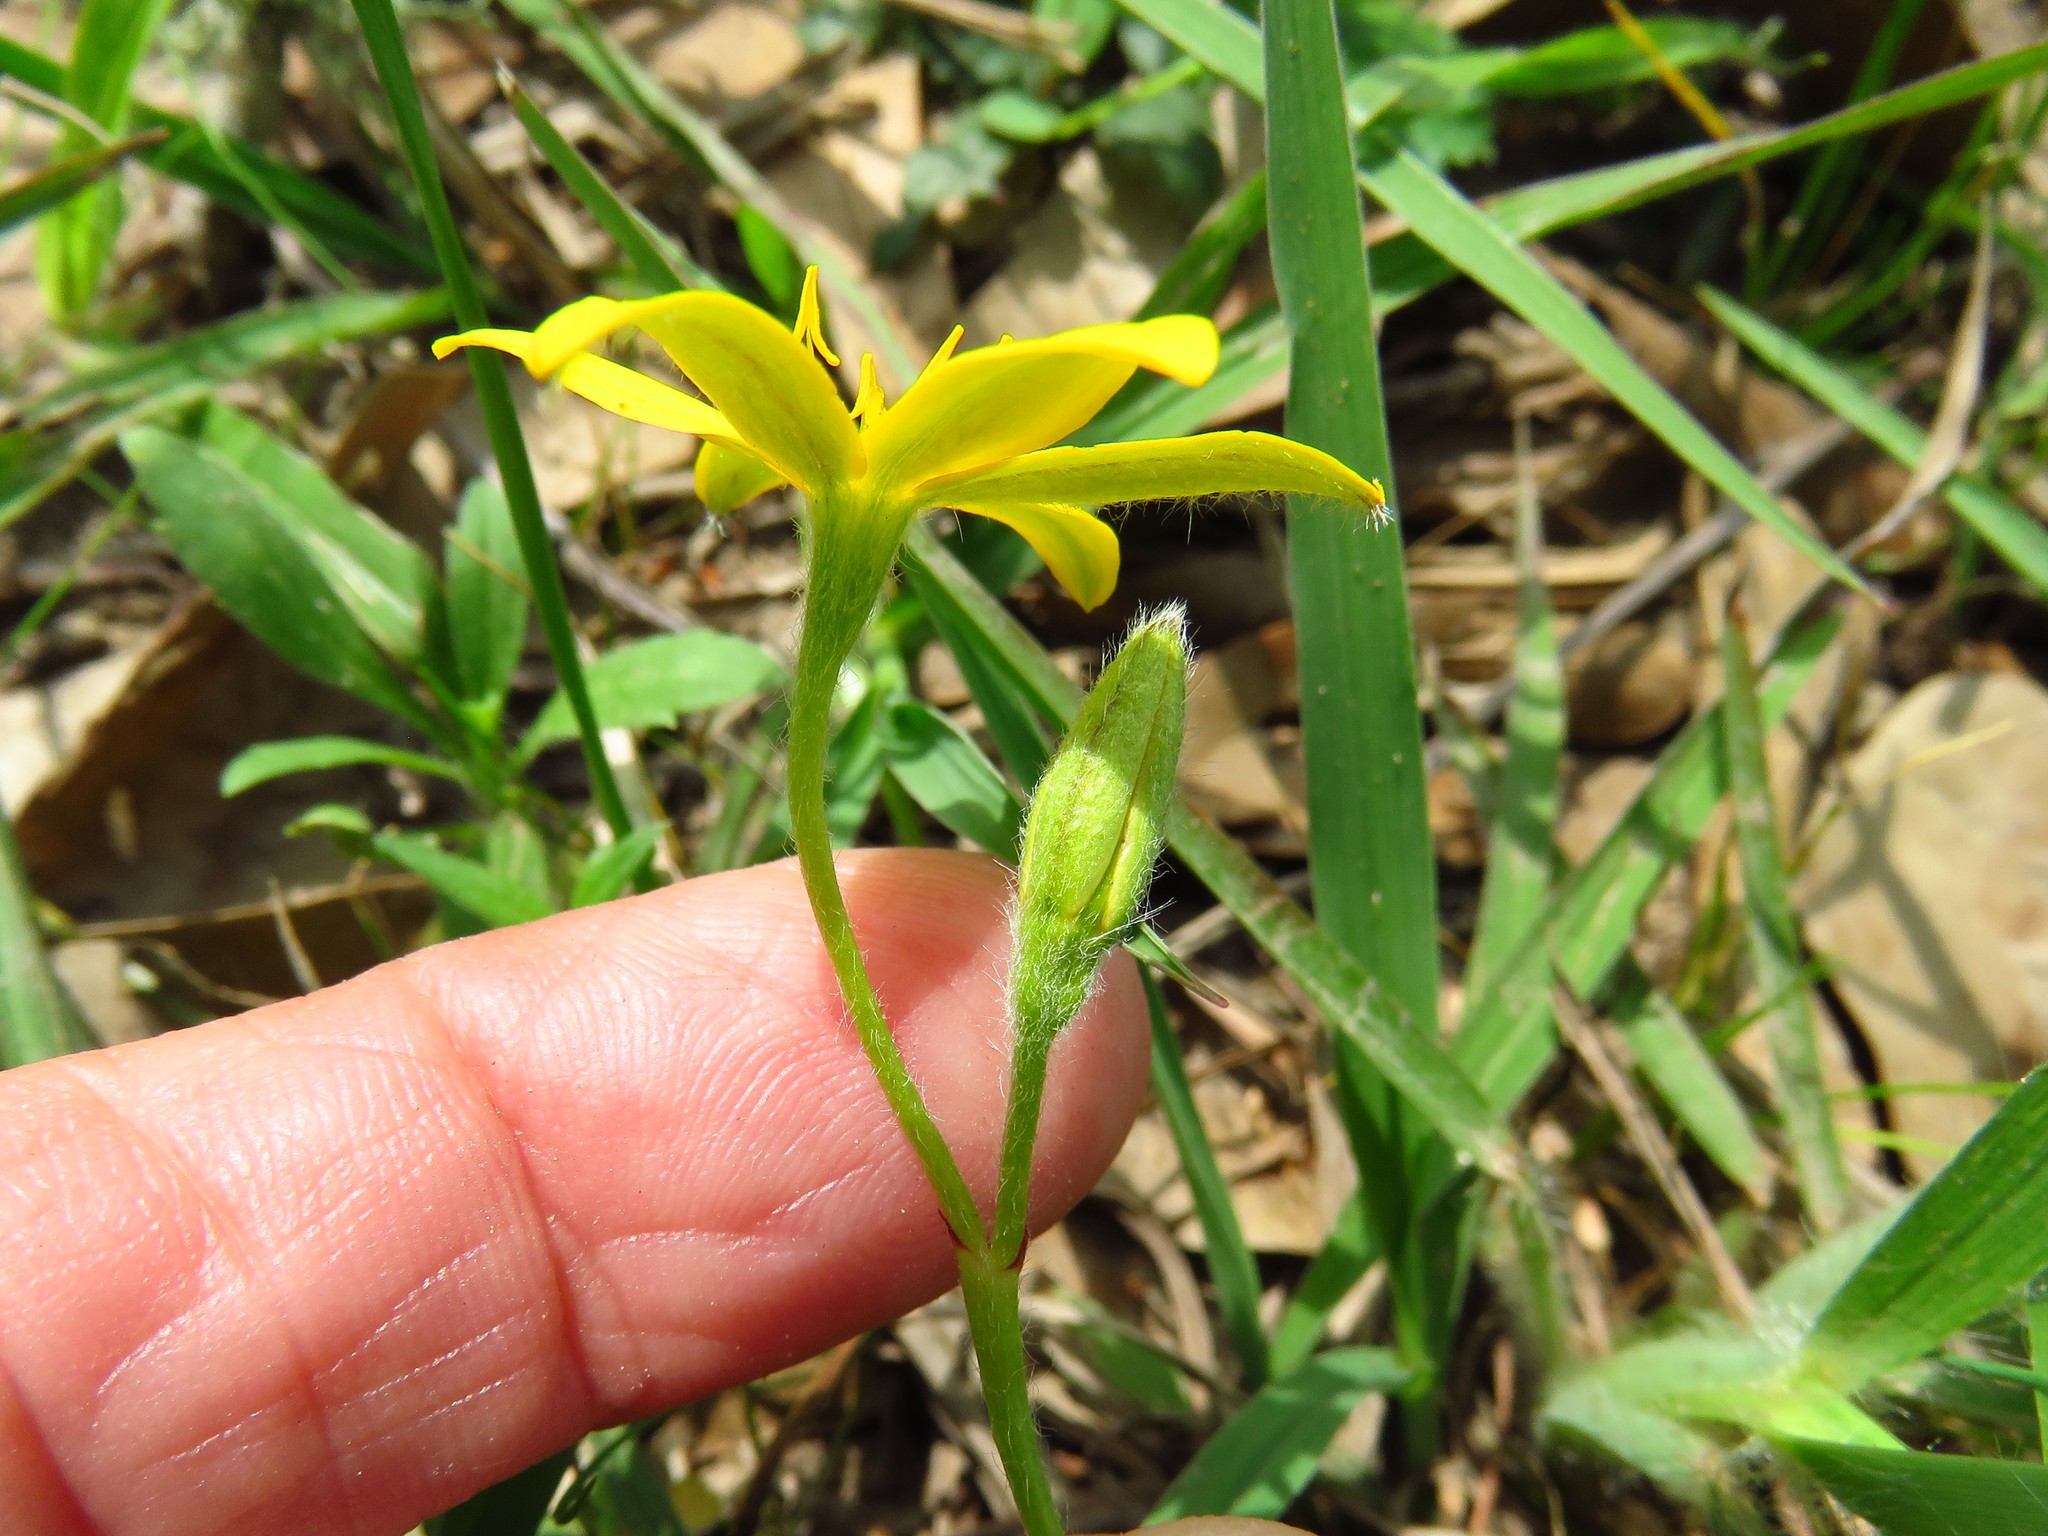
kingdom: Plantae
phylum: Tracheophyta
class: Liliopsida
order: Asparagales
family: Hypoxidaceae
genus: Hypoxis
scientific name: Hypoxis hirsuta
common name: Common goldstar
